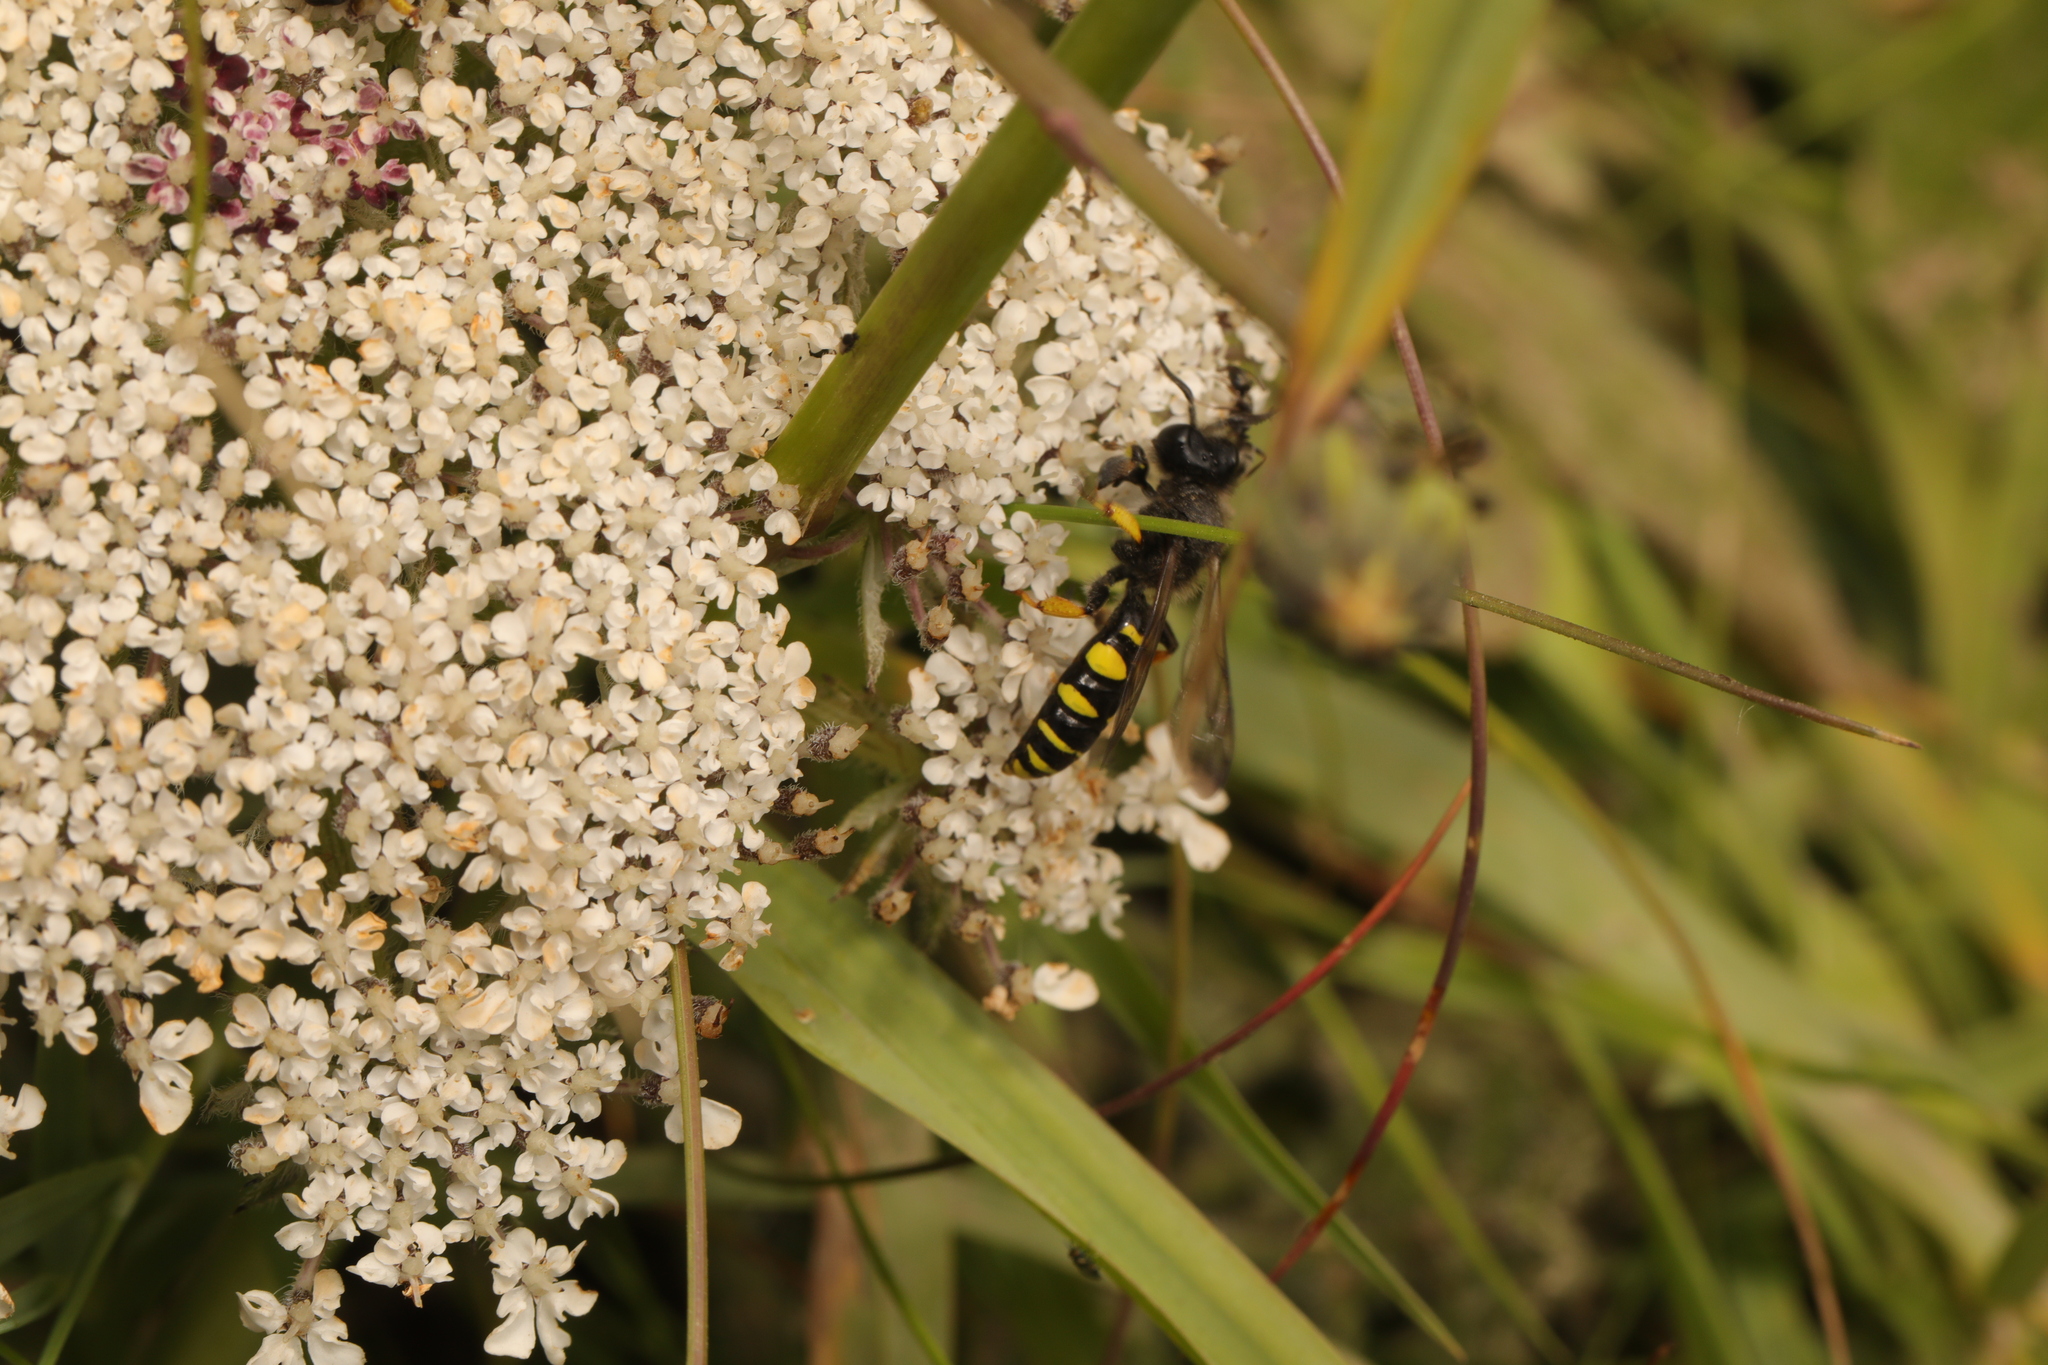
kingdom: Animalia
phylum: Arthropoda
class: Insecta
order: Hymenoptera
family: Crabronidae
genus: Crabro
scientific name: Crabro cribrarius
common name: Slender bodied digger wasp
